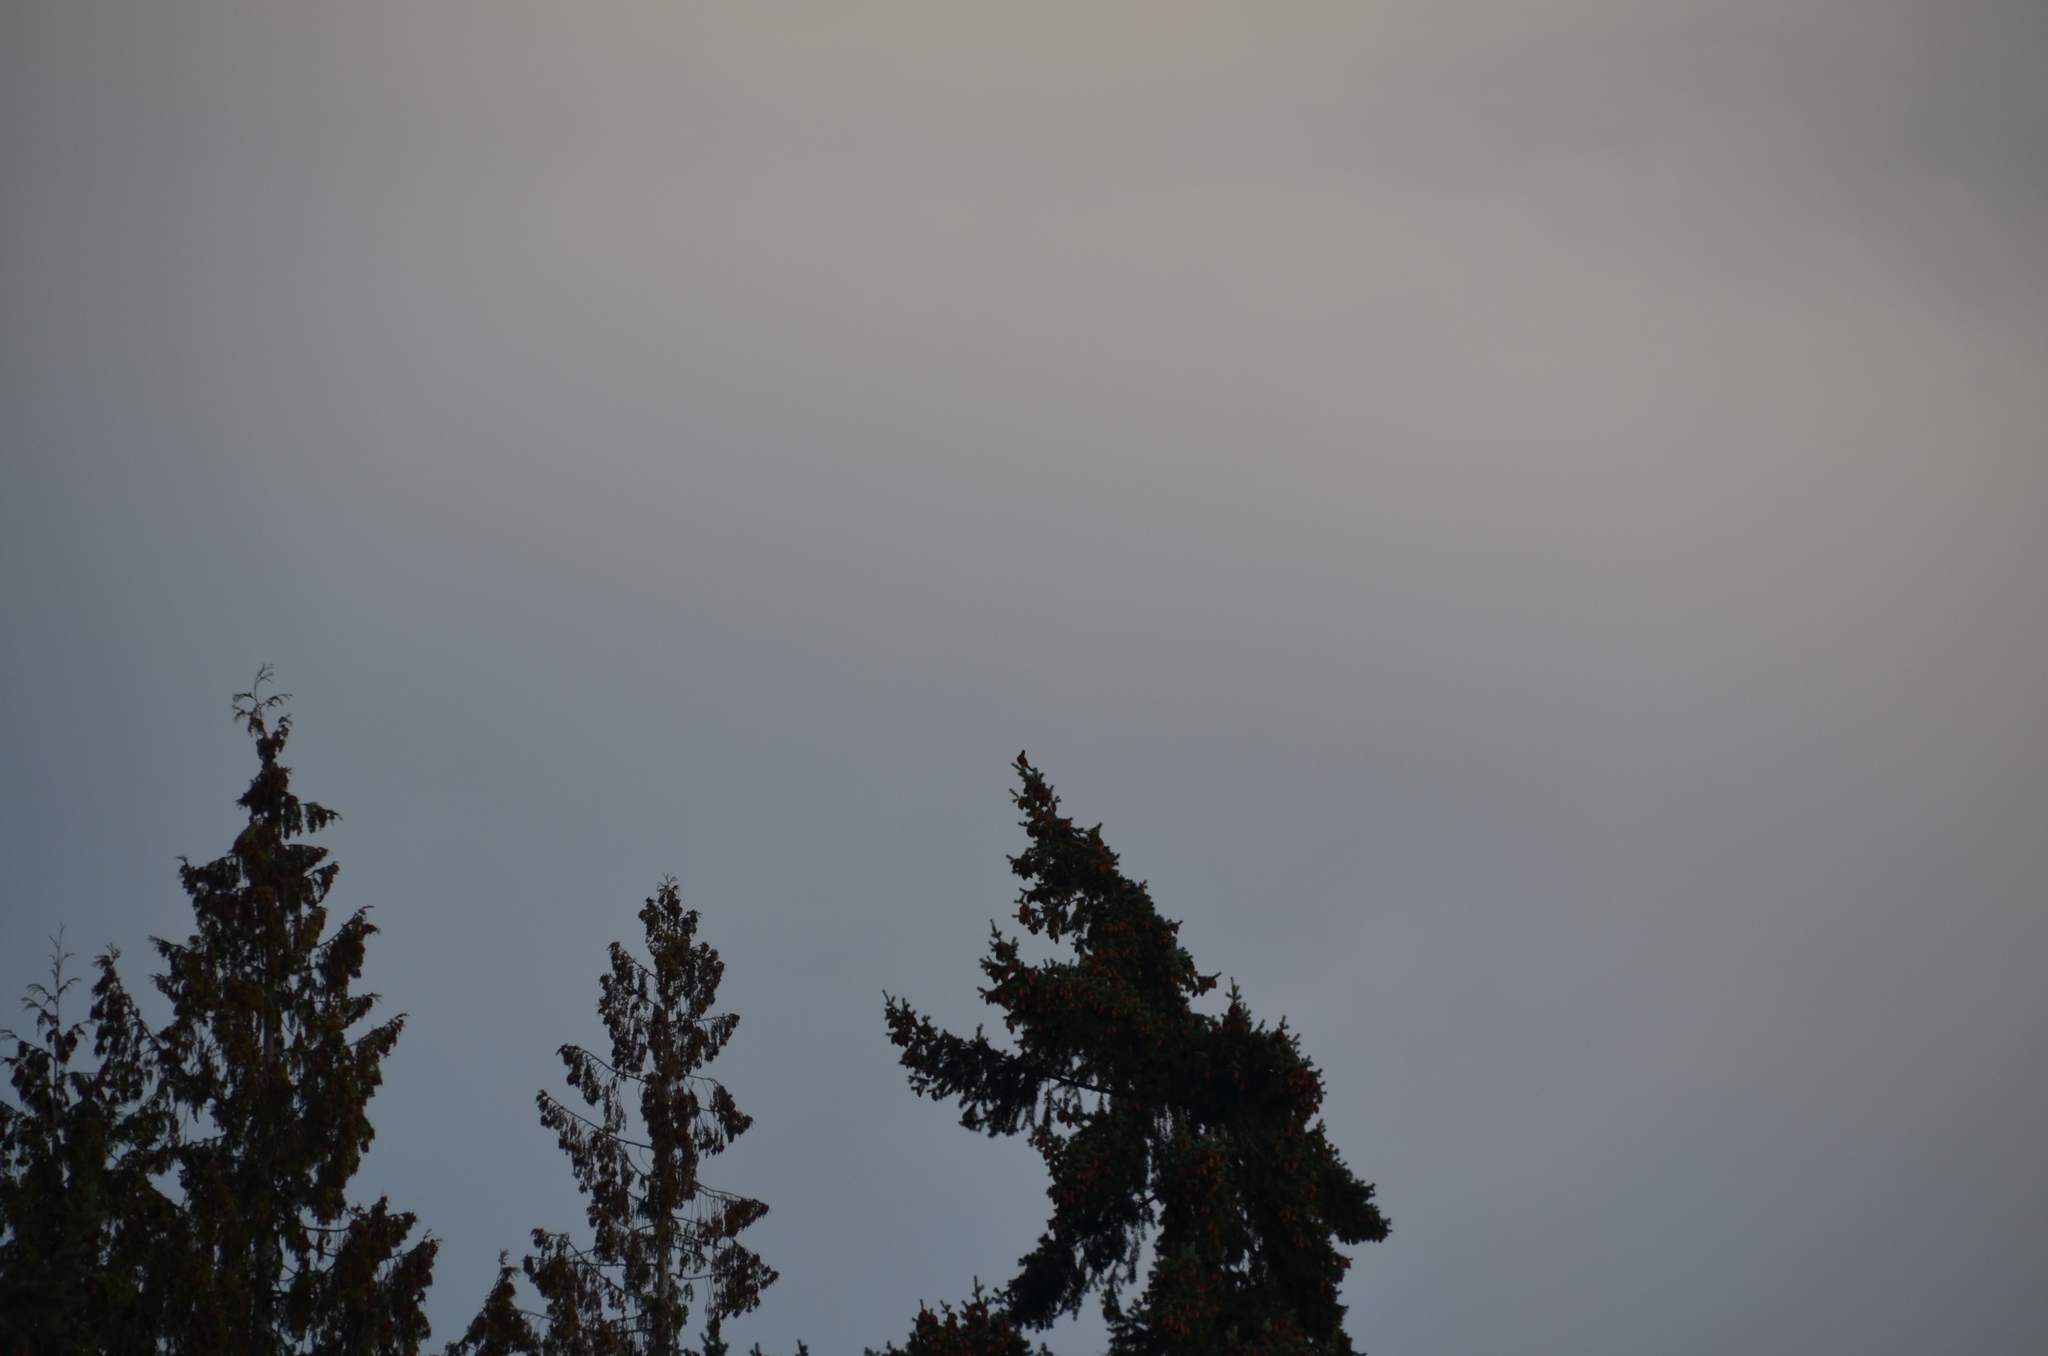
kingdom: Animalia
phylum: Chordata
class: Aves
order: Passeriformes
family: Turdidae
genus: Turdus
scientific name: Turdus migratorius
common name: American robin
